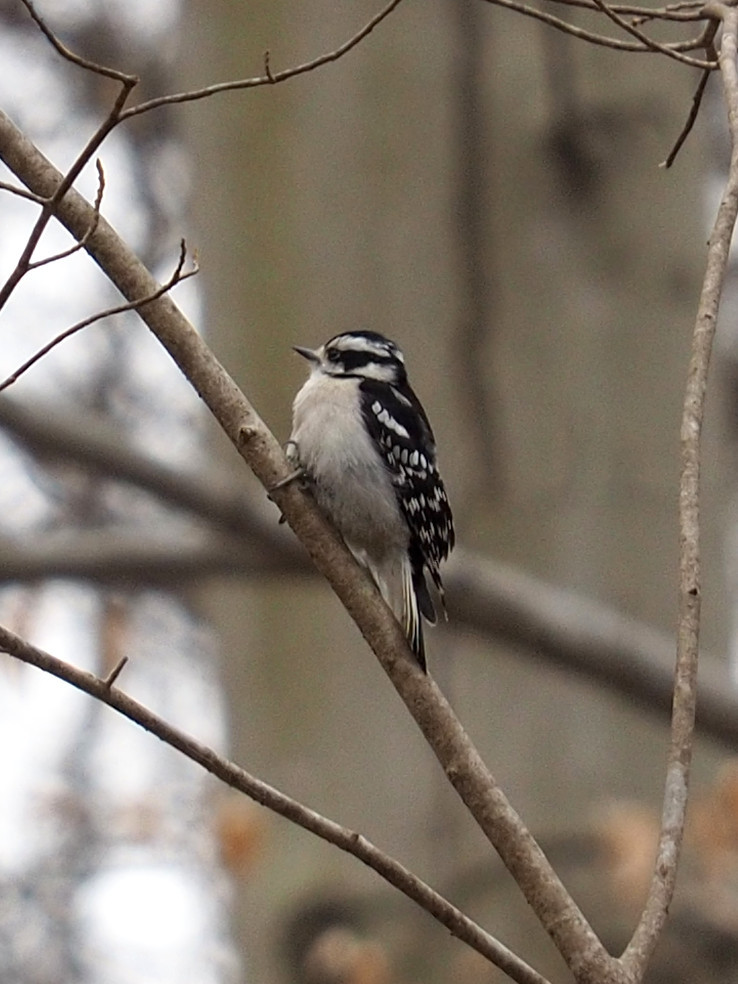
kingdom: Animalia
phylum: Chordata
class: Aves
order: Piciformes
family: Picidae
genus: Dryobates
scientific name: Dryobates pubescens
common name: Downy woodpecker
